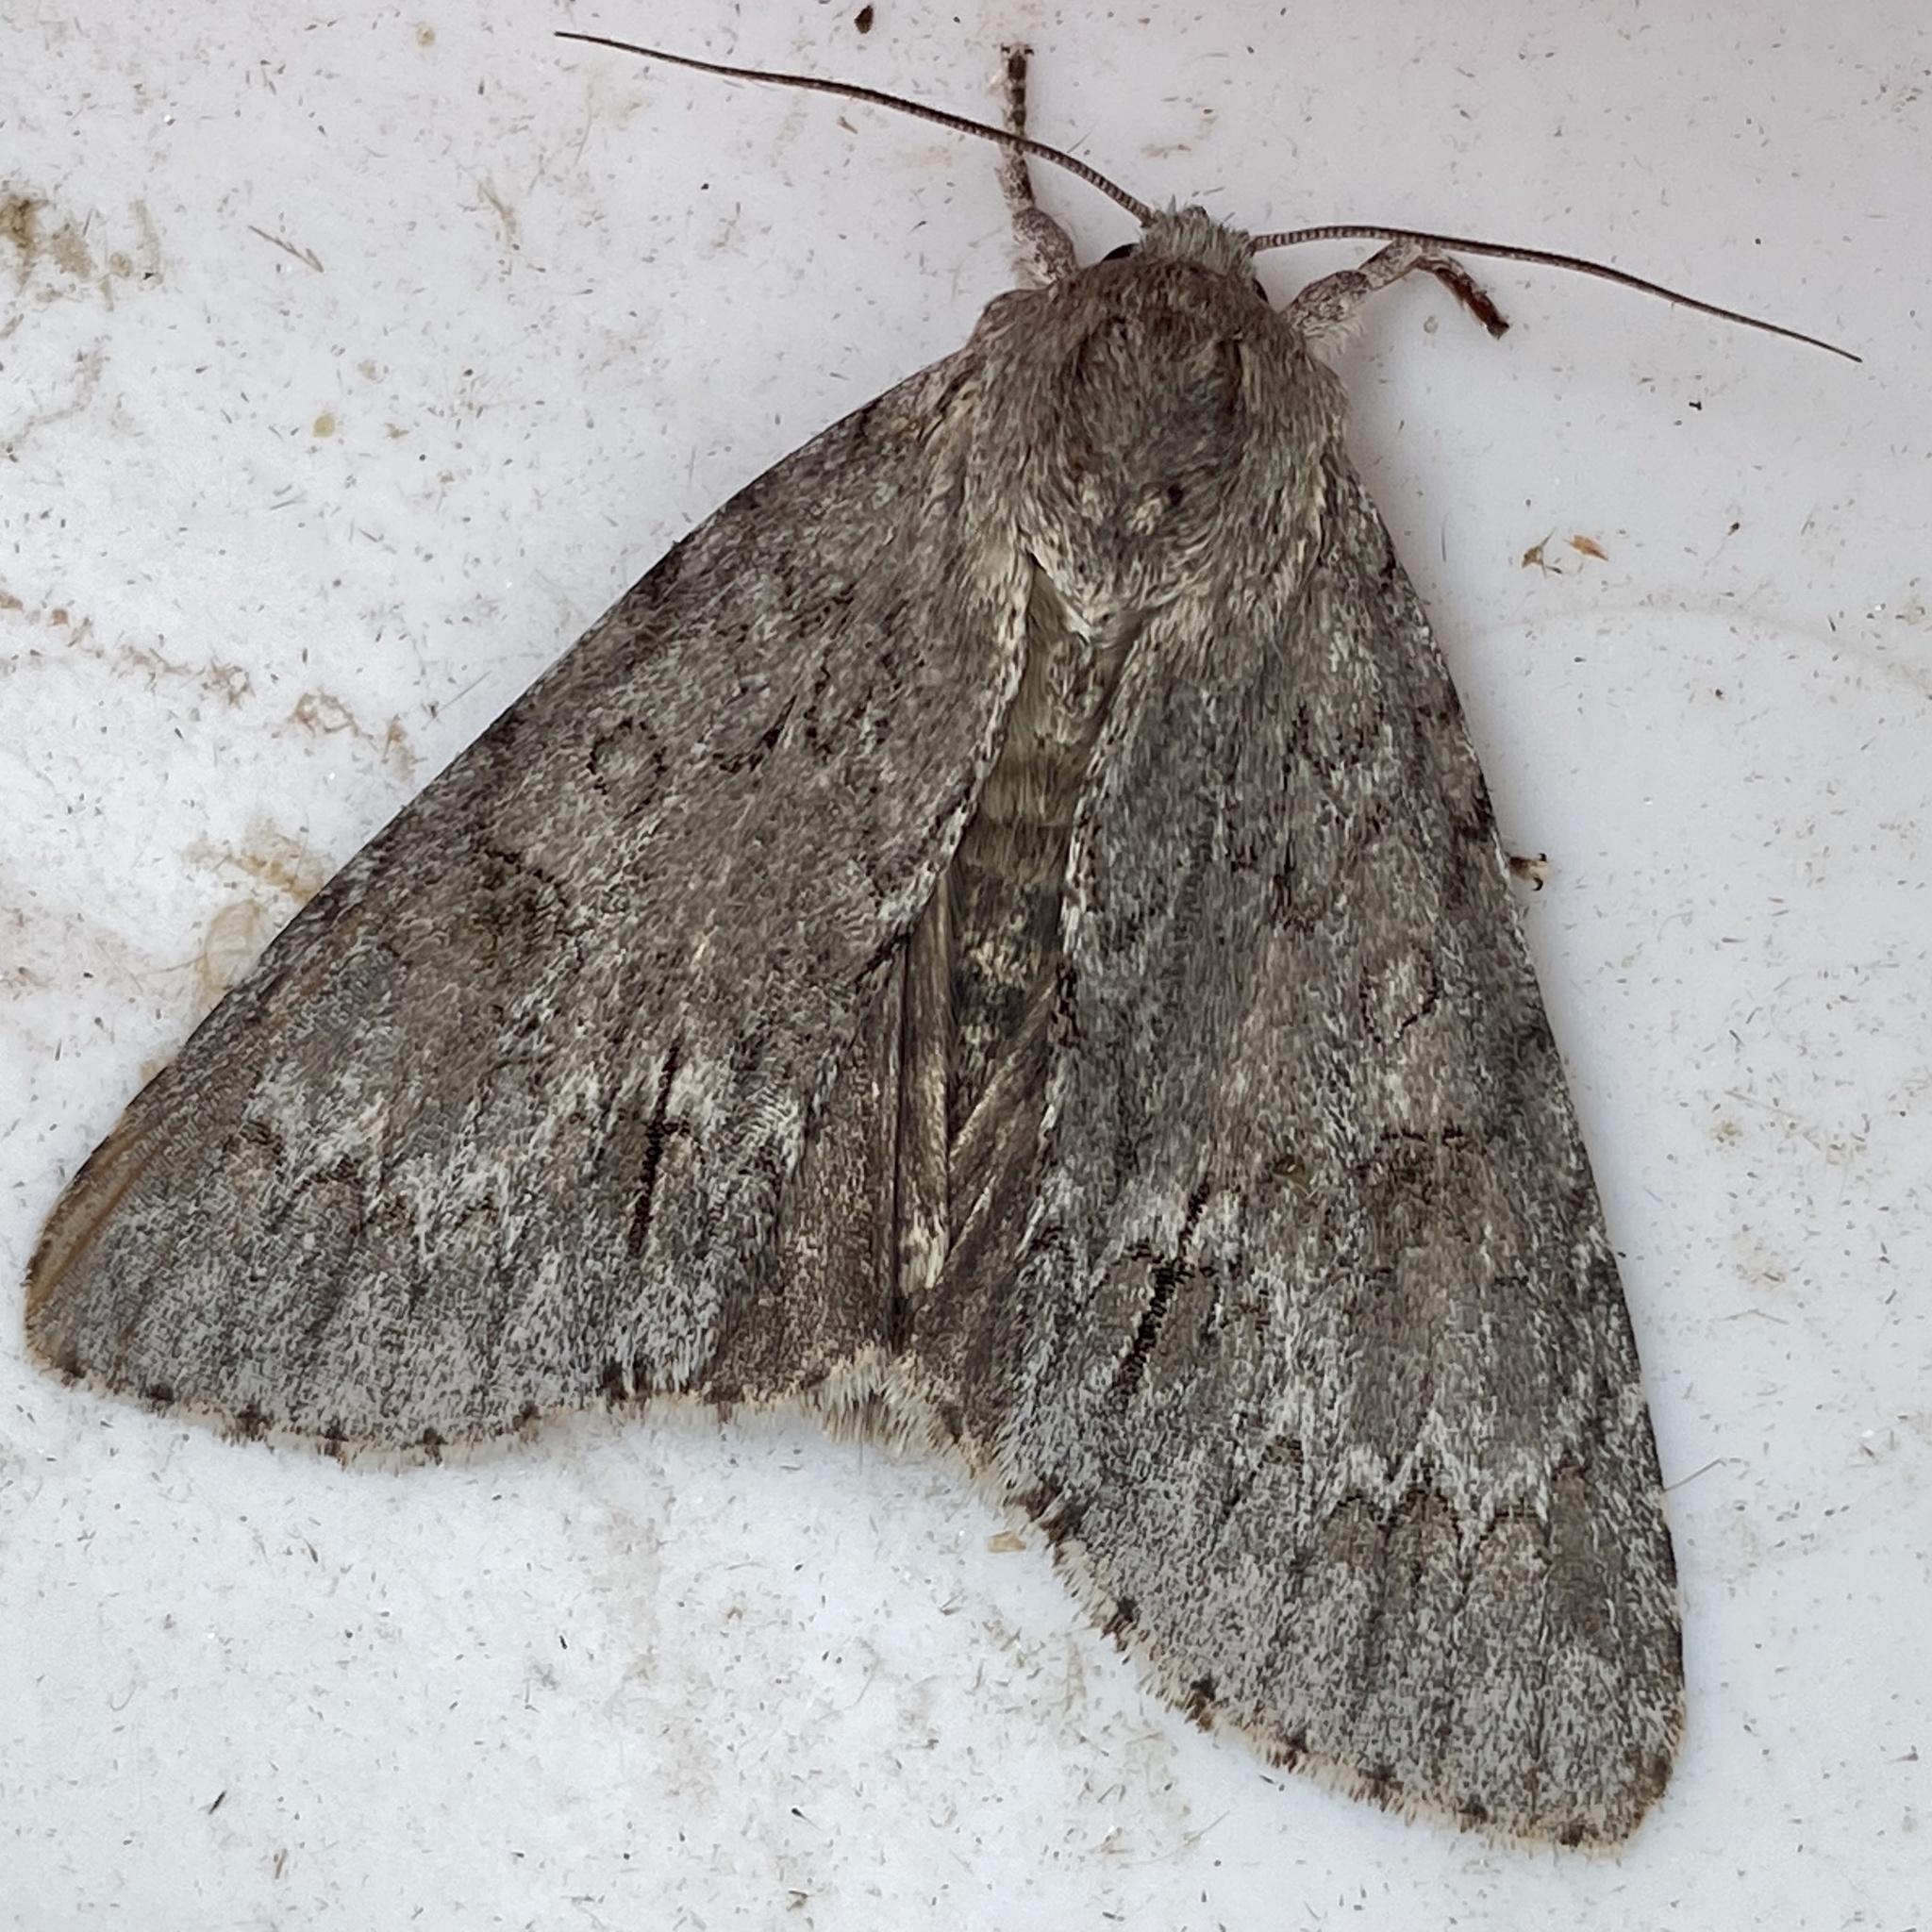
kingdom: Animalia
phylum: Arthropoda
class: Insecta
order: Lepidoptera
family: Noctuidae
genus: Acronicta
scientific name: Acronicta americana
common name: American dagger
